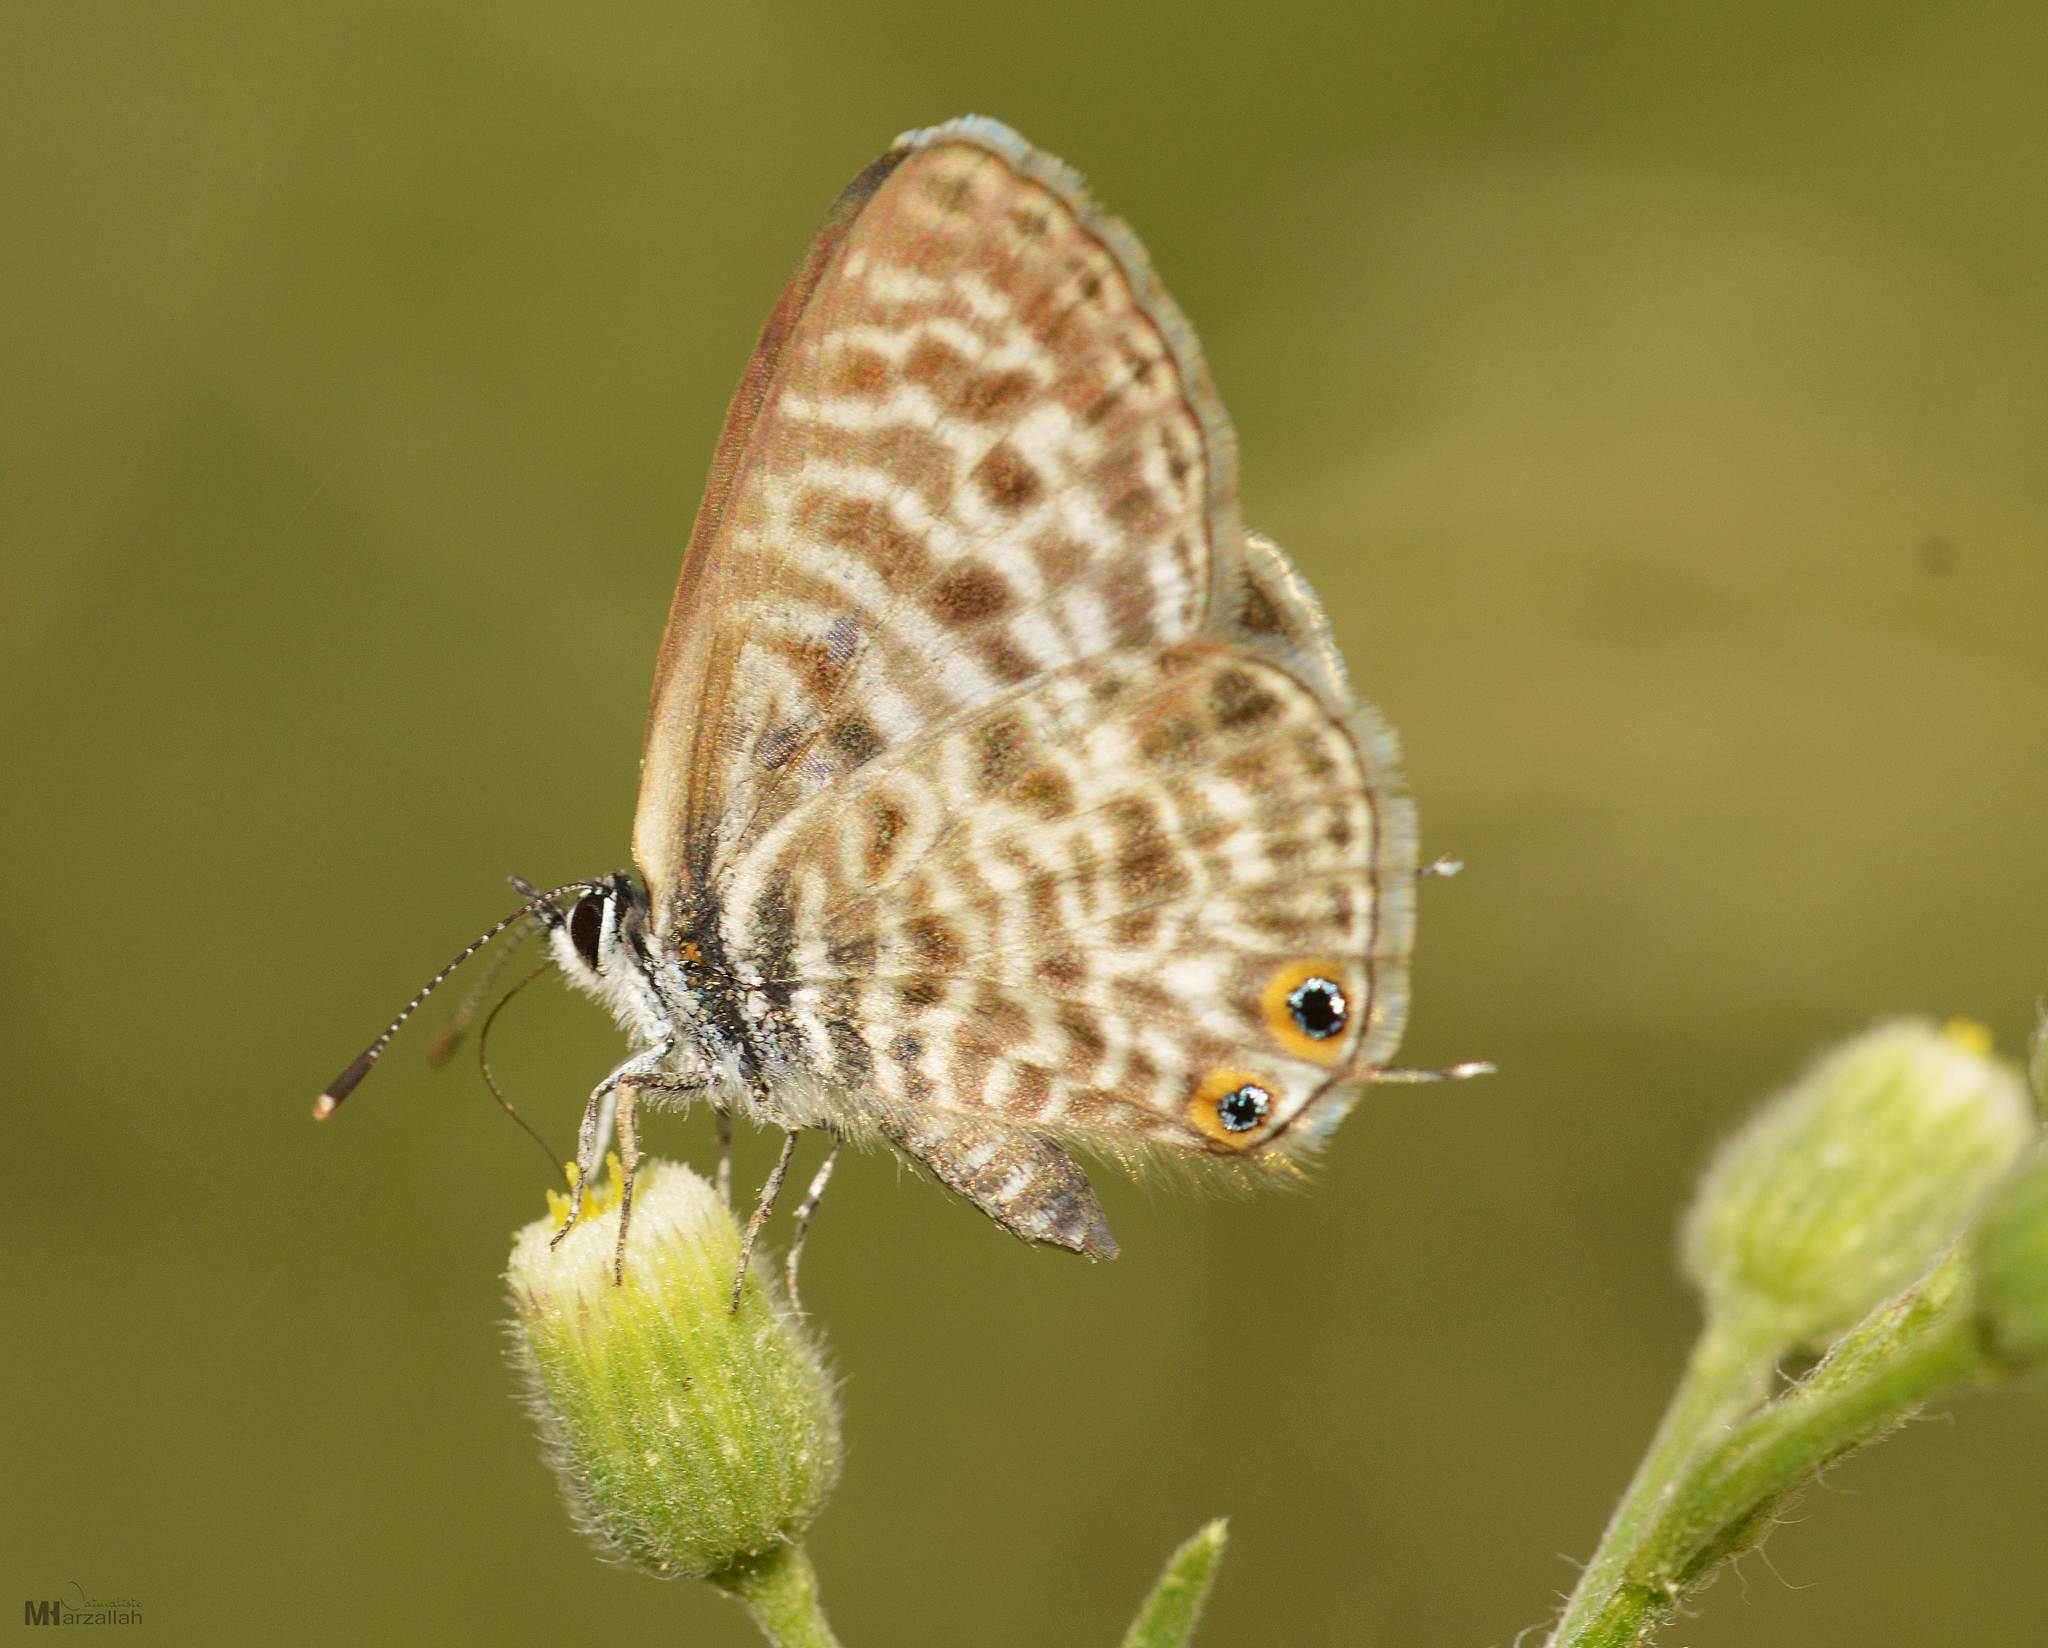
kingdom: Animalia
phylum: Arthropoda
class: Insecta
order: Lepidoptera
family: Lycaenidae
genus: Leptotes
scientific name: Leptotes pirithous
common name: Lang's short-tailed blue
